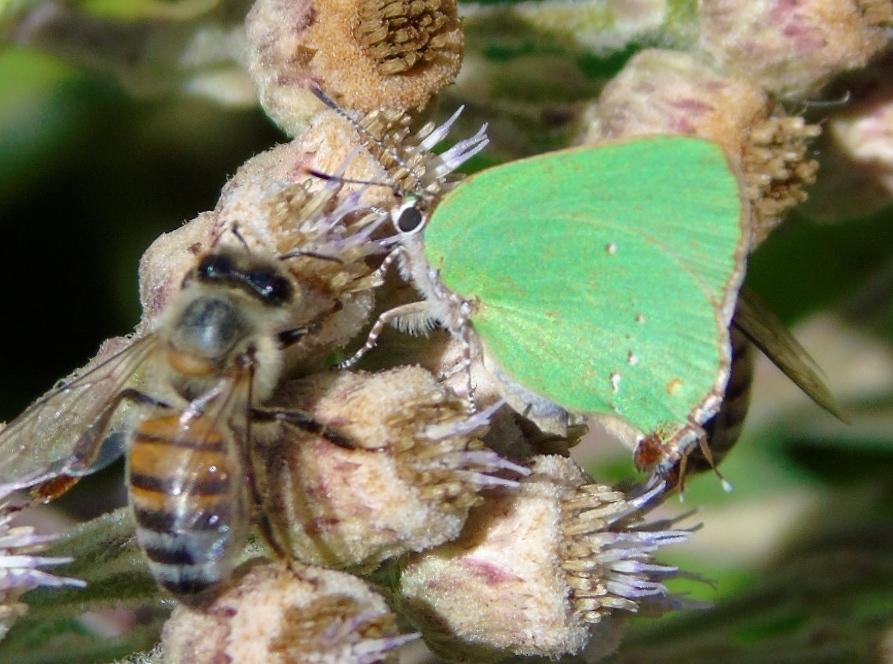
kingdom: Animalia
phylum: Arthropoda
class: Insecta
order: Lepidoptera
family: Lycaenidae
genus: Thecla
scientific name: Thecla herodotus
